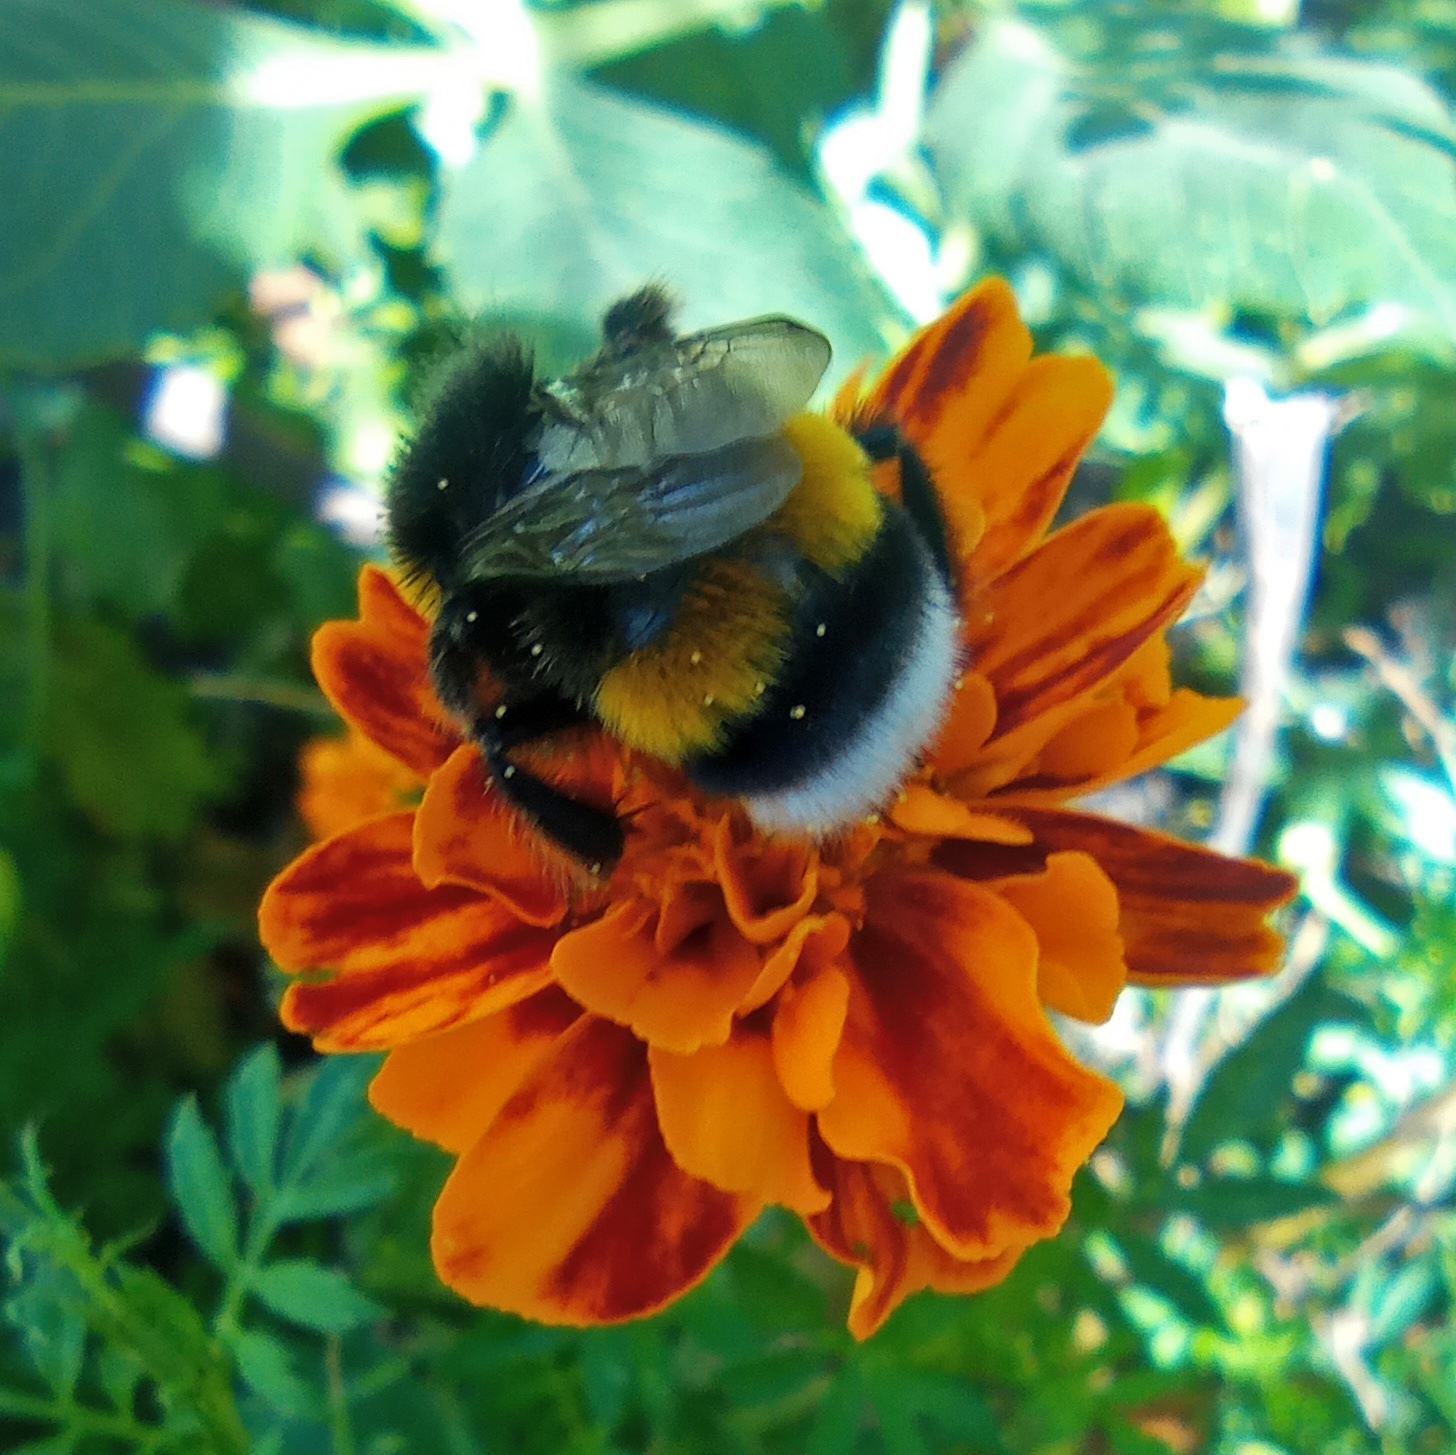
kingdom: Animalia
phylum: Arthropoda
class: Insecta
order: Hymenoptera
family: Apidae
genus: Bombus
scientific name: Bombus
